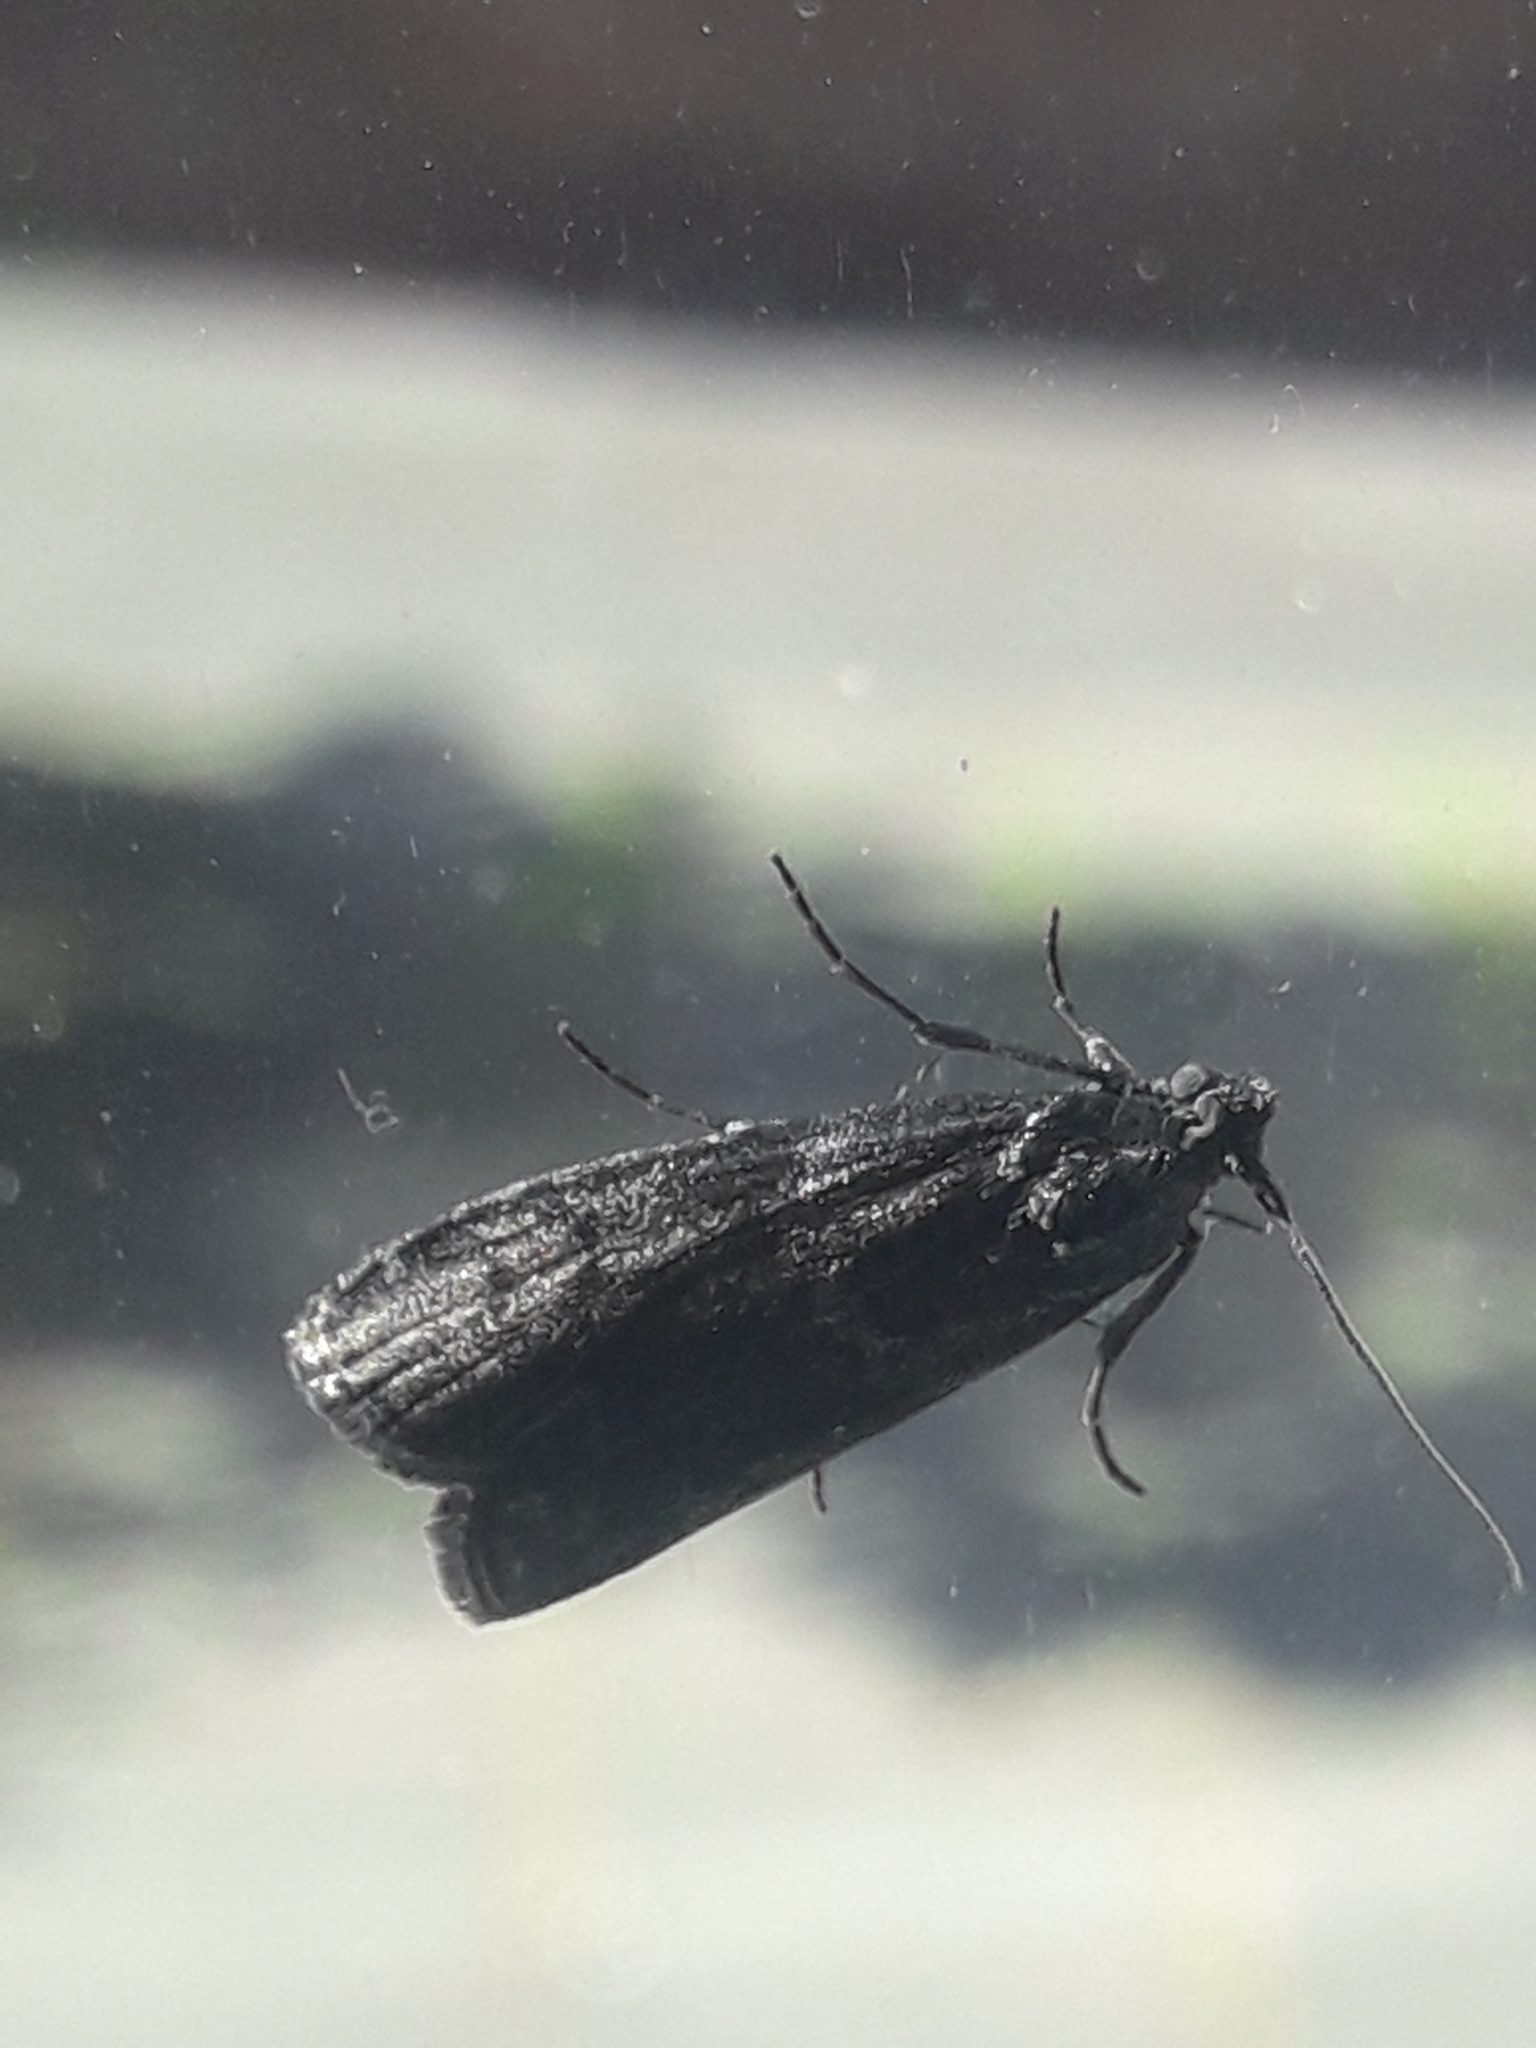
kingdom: Animalia
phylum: Arthropoda
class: Insecta
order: Lepidoptera
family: Pyralidae
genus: Pyla
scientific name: Pyla fusca
